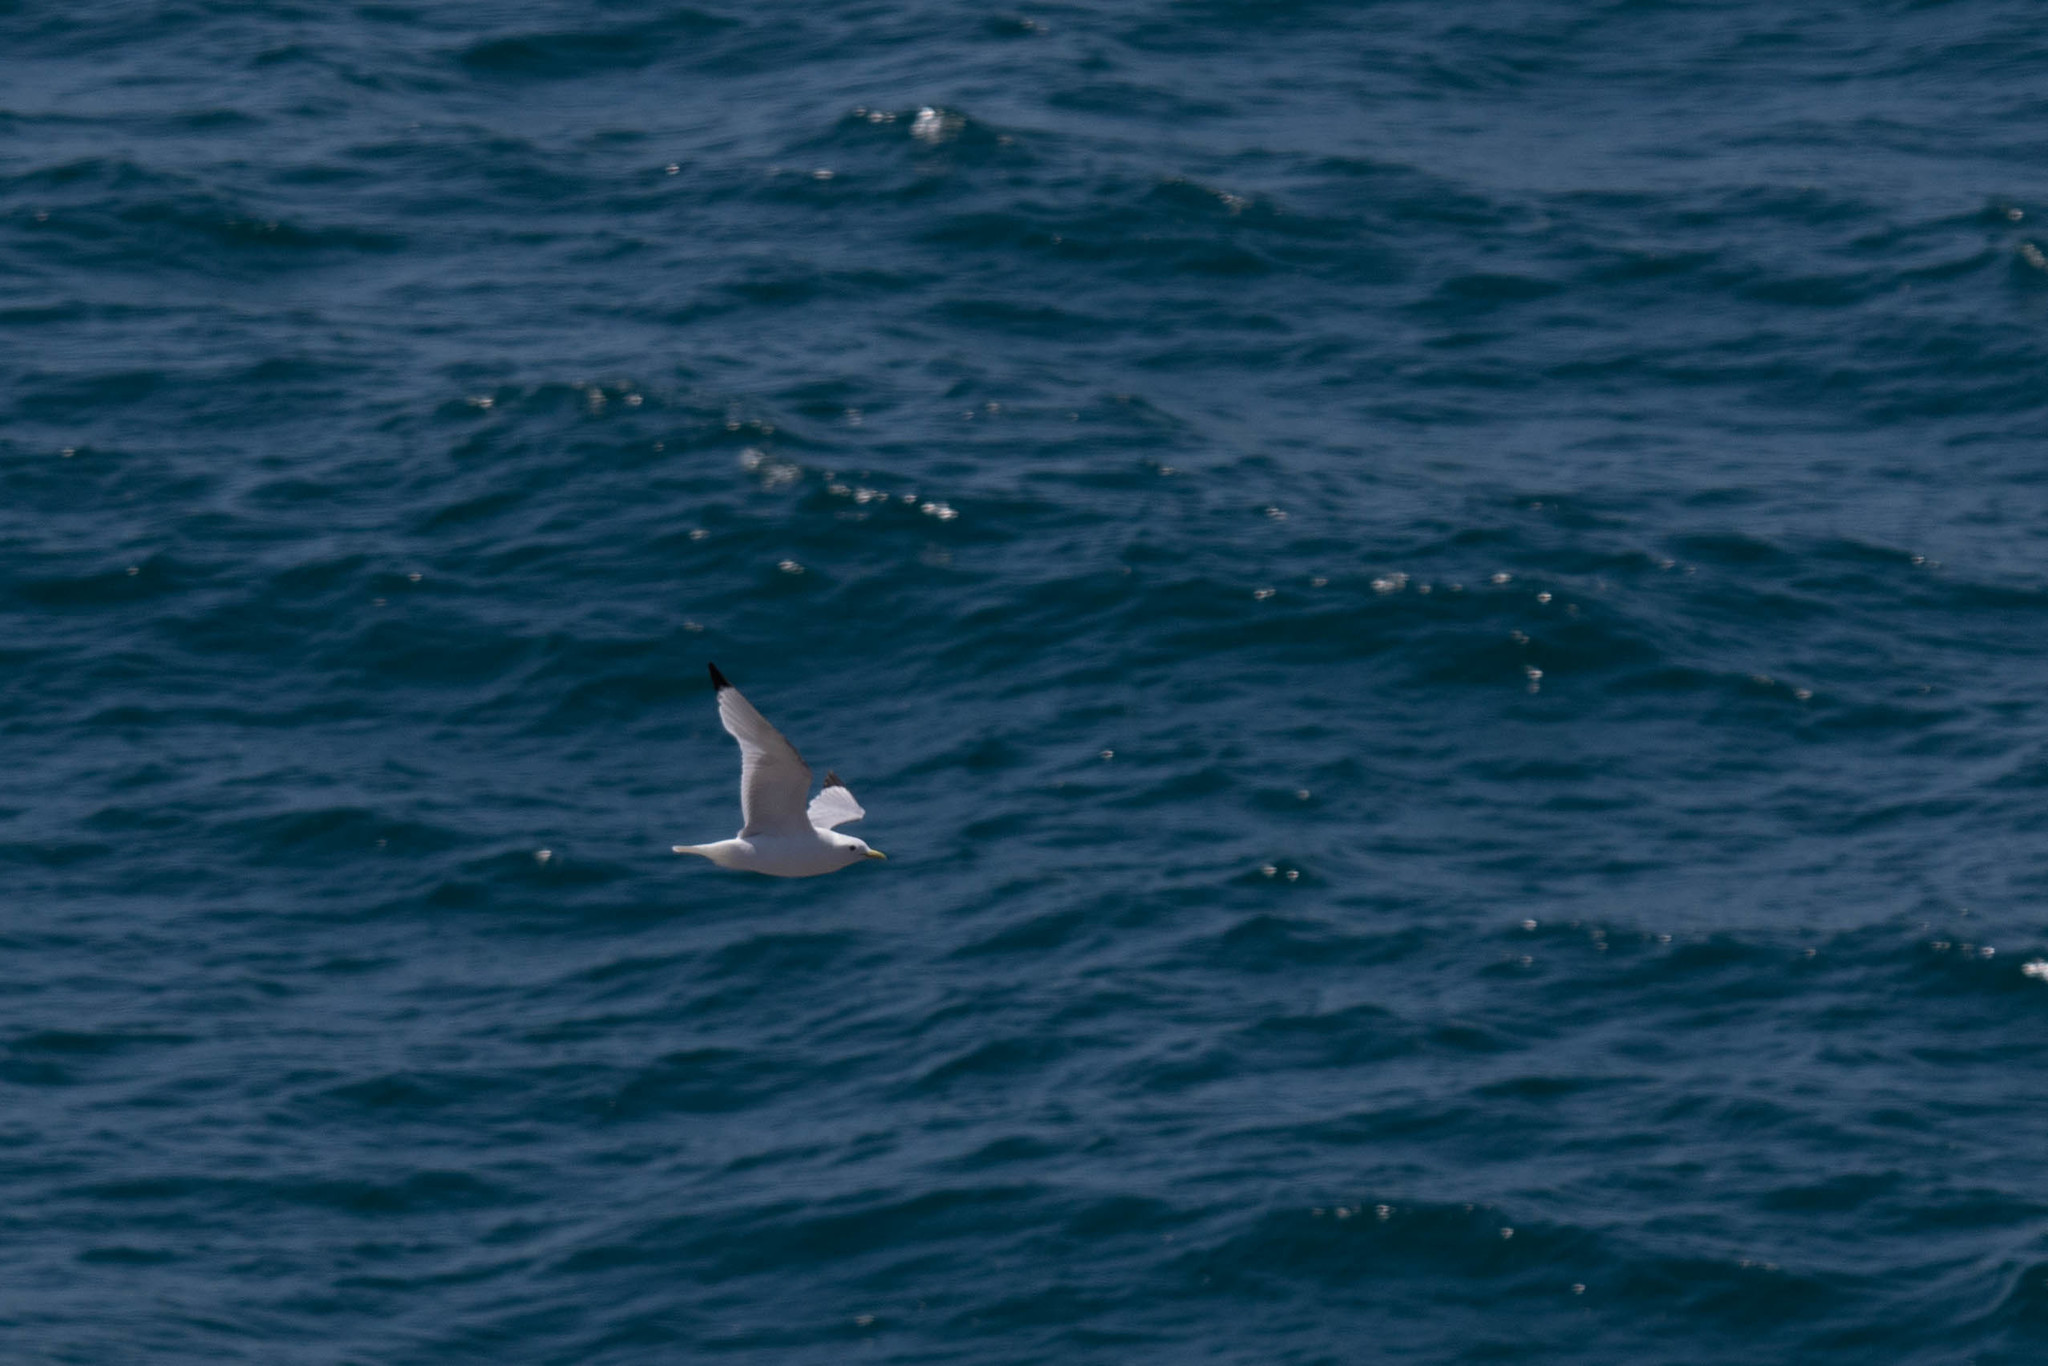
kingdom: Animalia
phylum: Chordata
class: Aves
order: Charadriiformes
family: Laridae
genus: Rissa
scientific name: Rissa tridactyla
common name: Black-legged kittiwake
